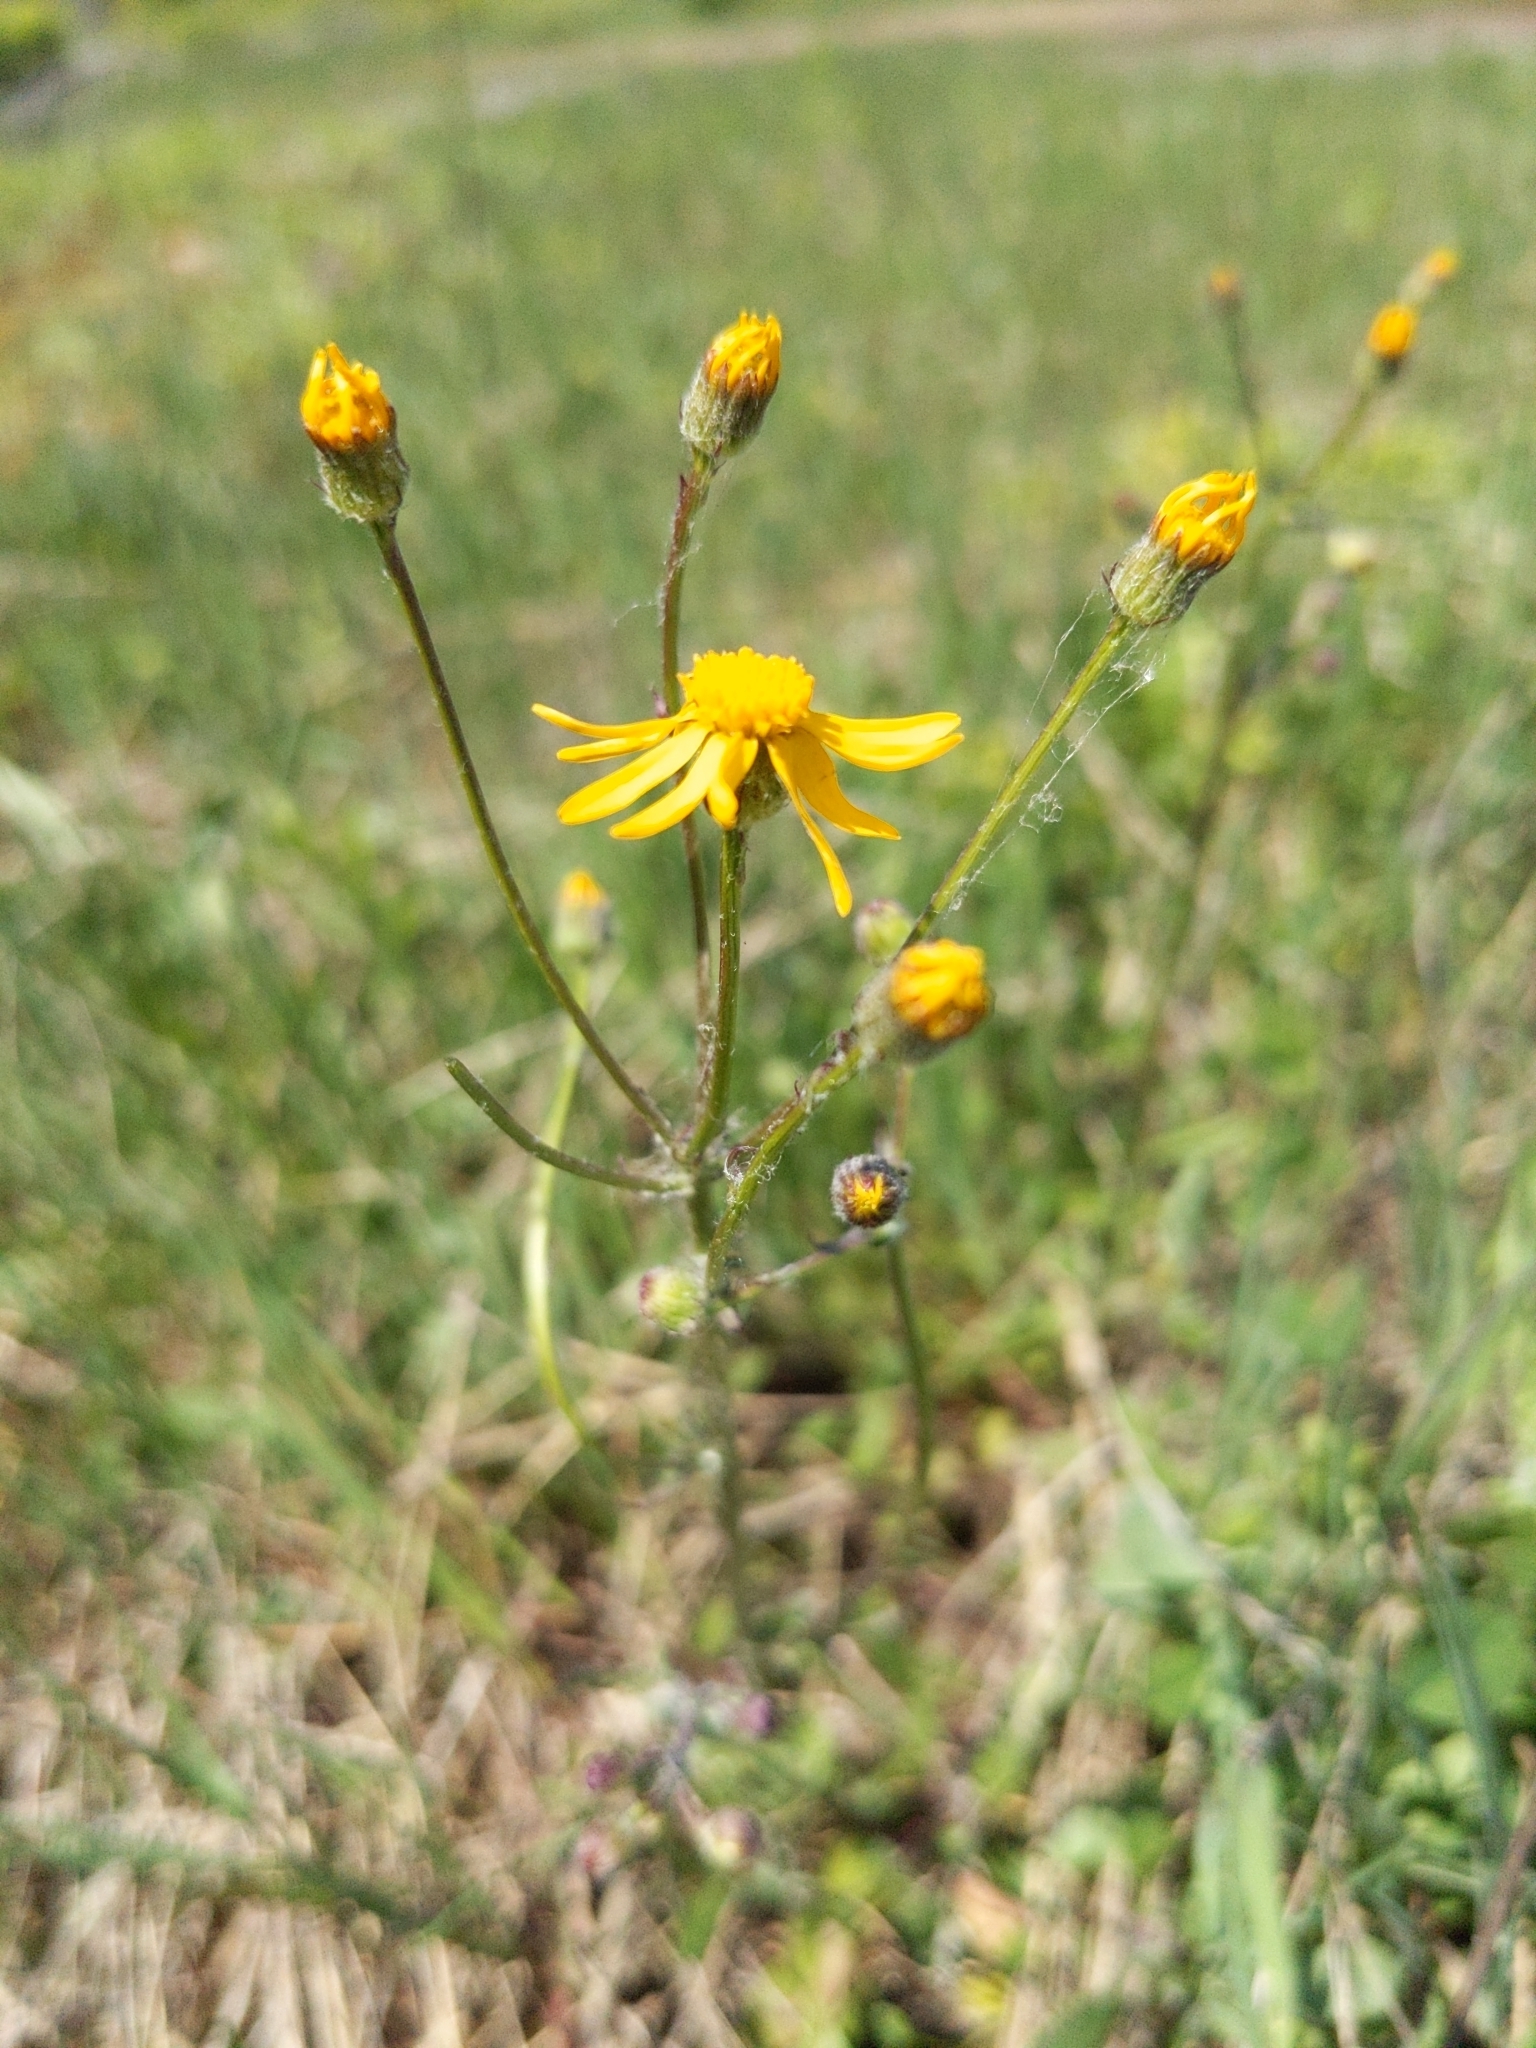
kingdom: Plantae
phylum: Tracheophyta
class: Magnoliopsida
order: Asterales
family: Asteraceae
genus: Packera
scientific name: Packera paupercula
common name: Balsam groundsel
